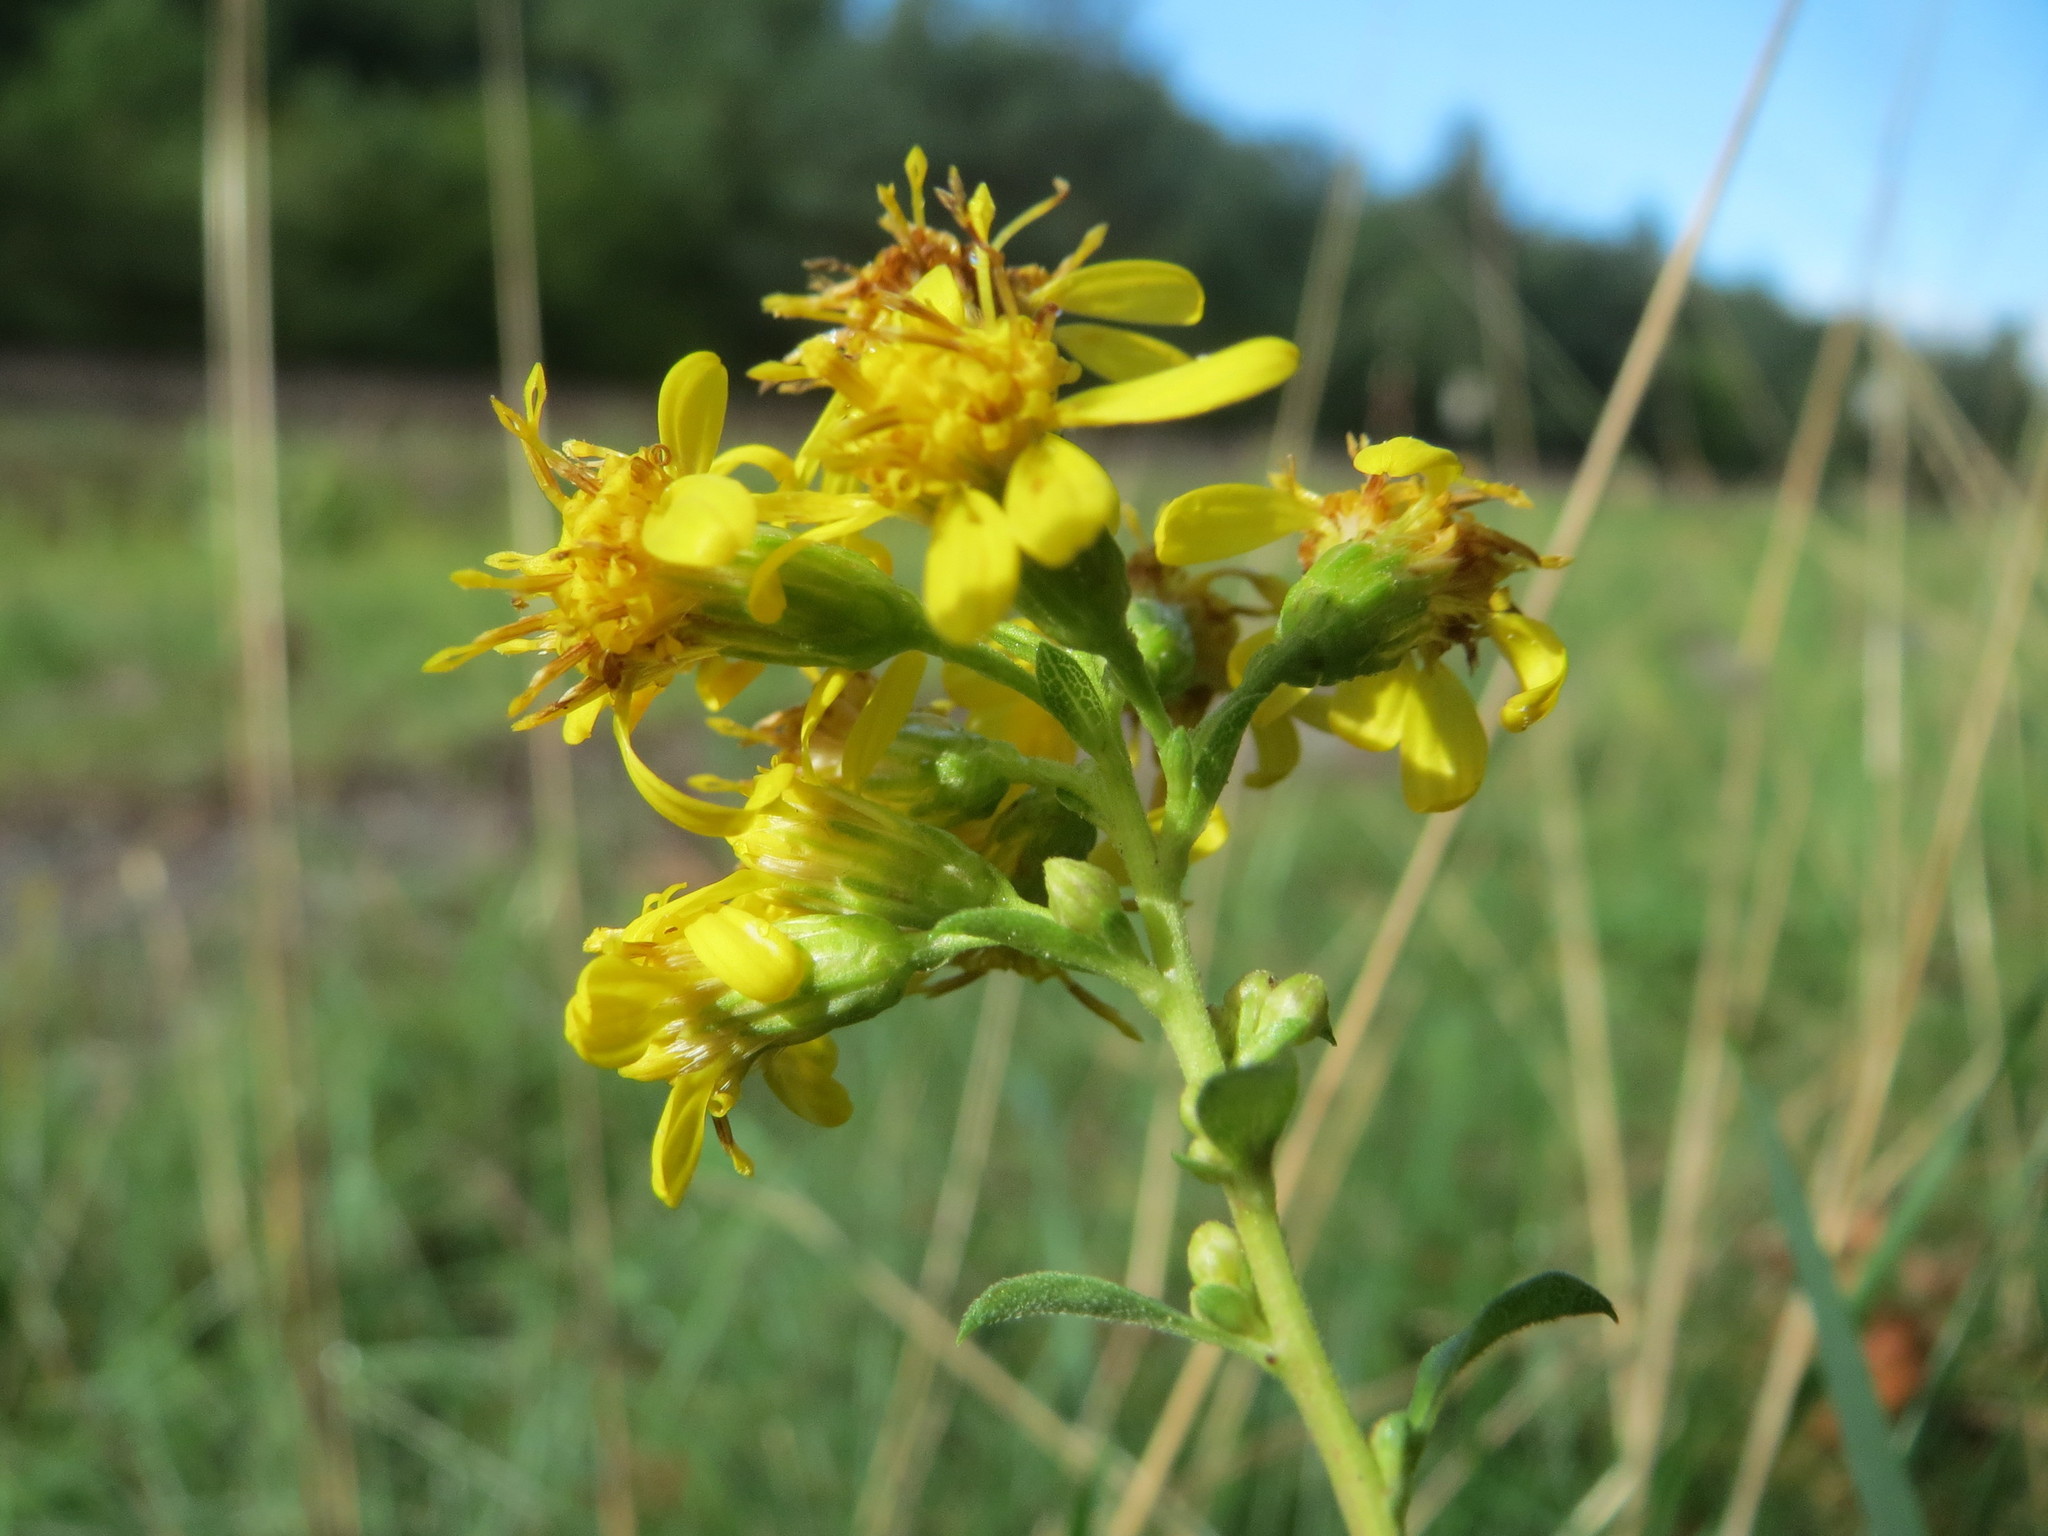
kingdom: Plantae
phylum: Tracheophyta
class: Magnoliopsida
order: Asterales
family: Asteraceae
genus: Solidago
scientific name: Solidago virgaurea
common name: Goldenrod
